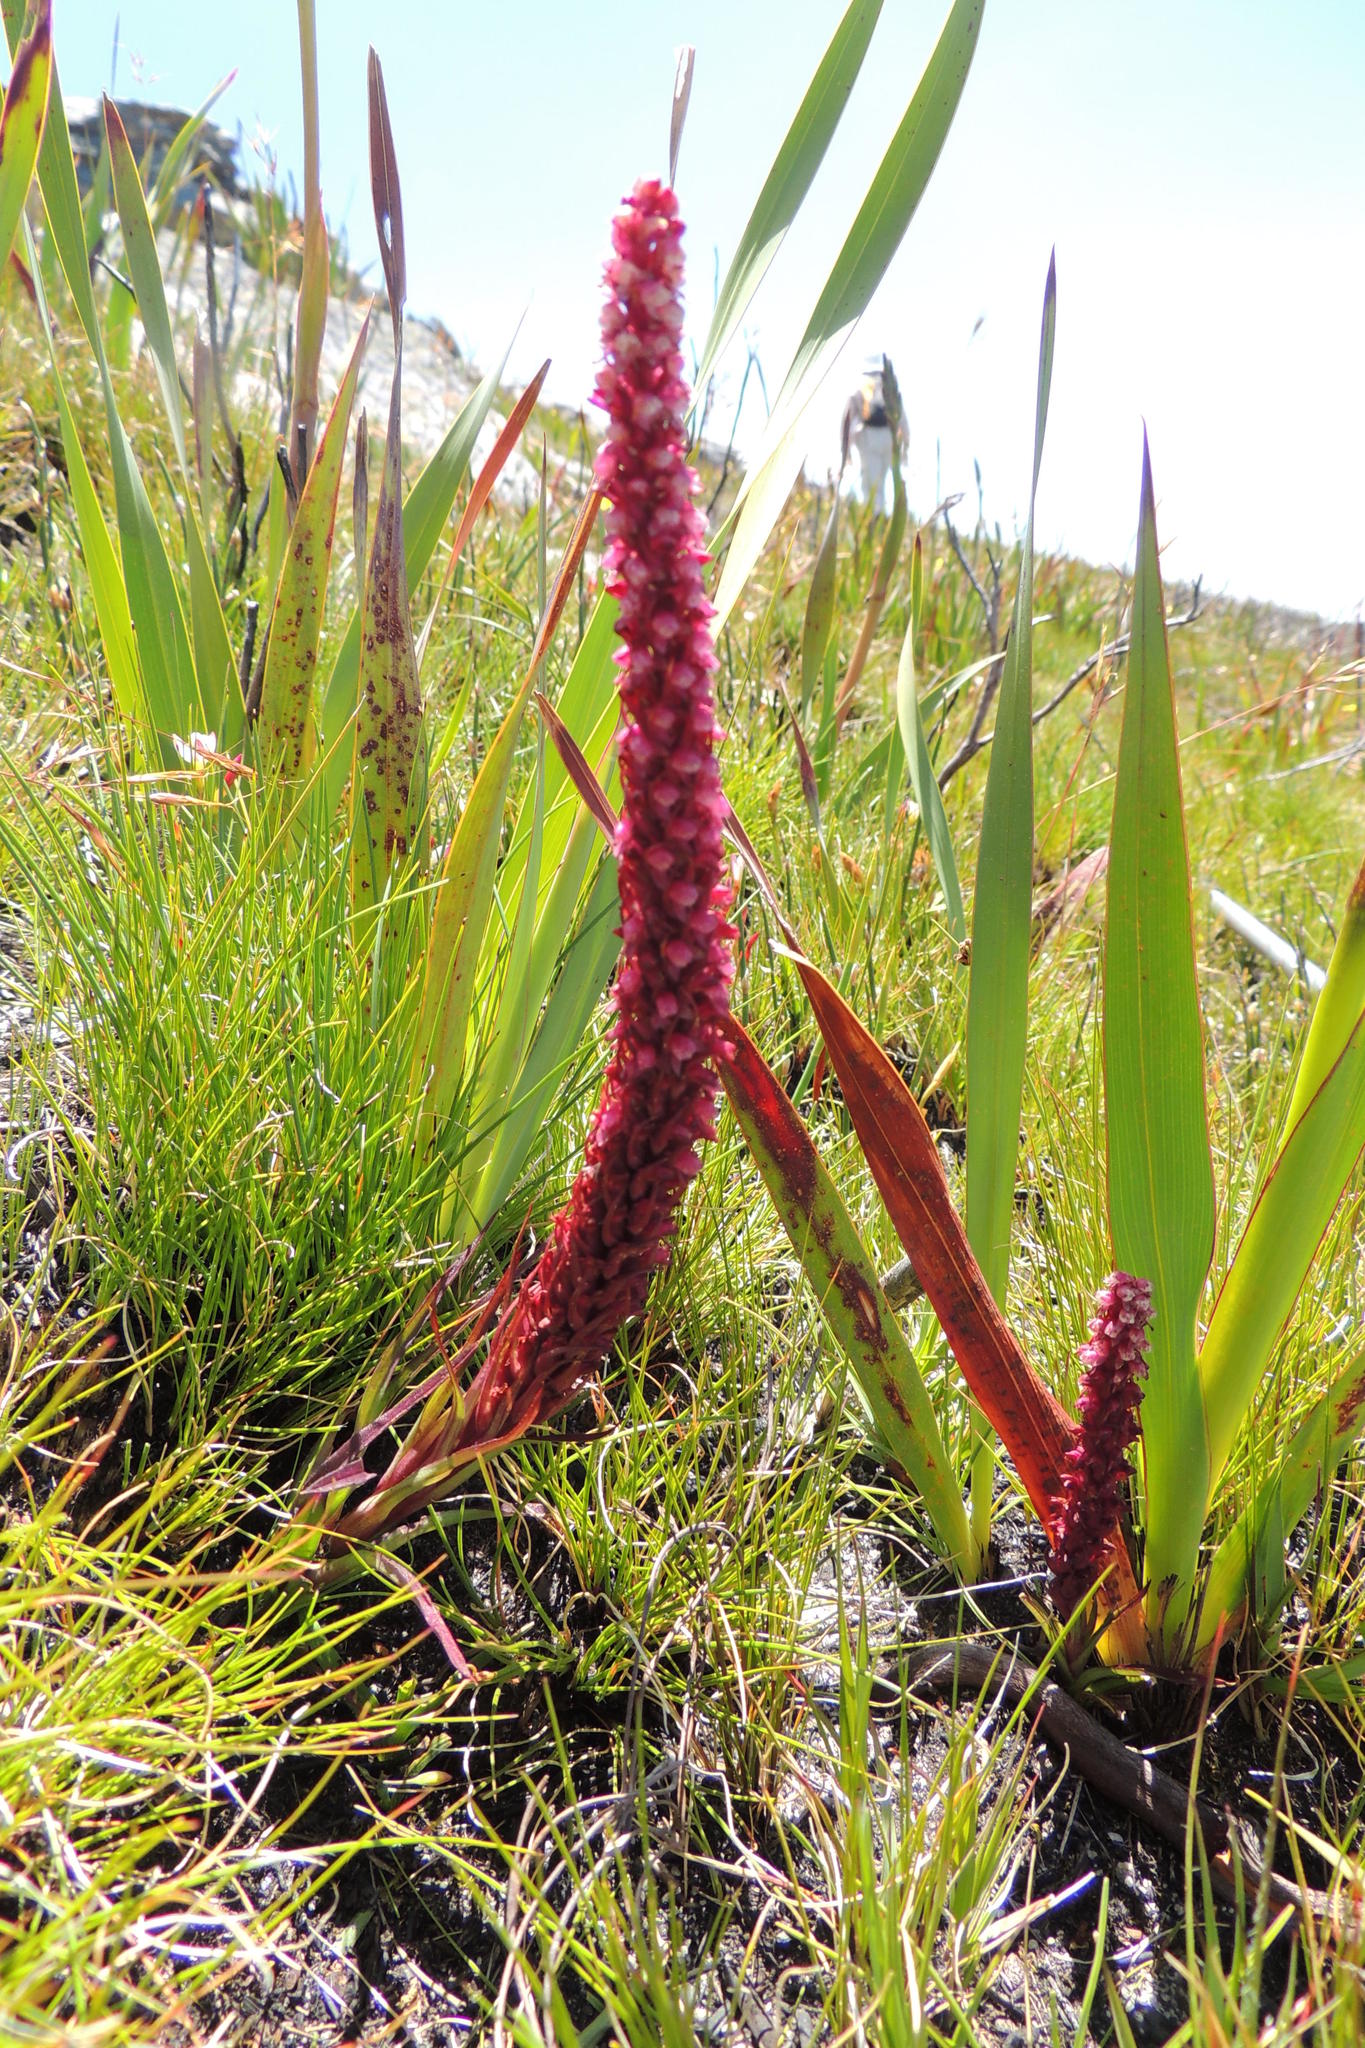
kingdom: Plantae
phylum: Tracheophyta
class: Liliopsida
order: Asparagales
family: Orchidaceae
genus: Disa
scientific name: Disa micropetala
